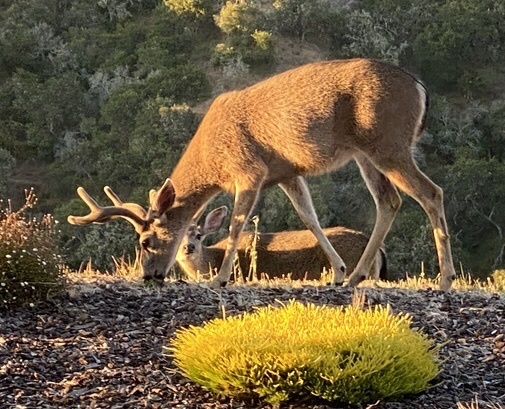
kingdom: Animalia
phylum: Chordata
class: Mammalia
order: Artiodactyla
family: Cervidae
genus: Odocoileus
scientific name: Odocoileus hemionus
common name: Mule deer
